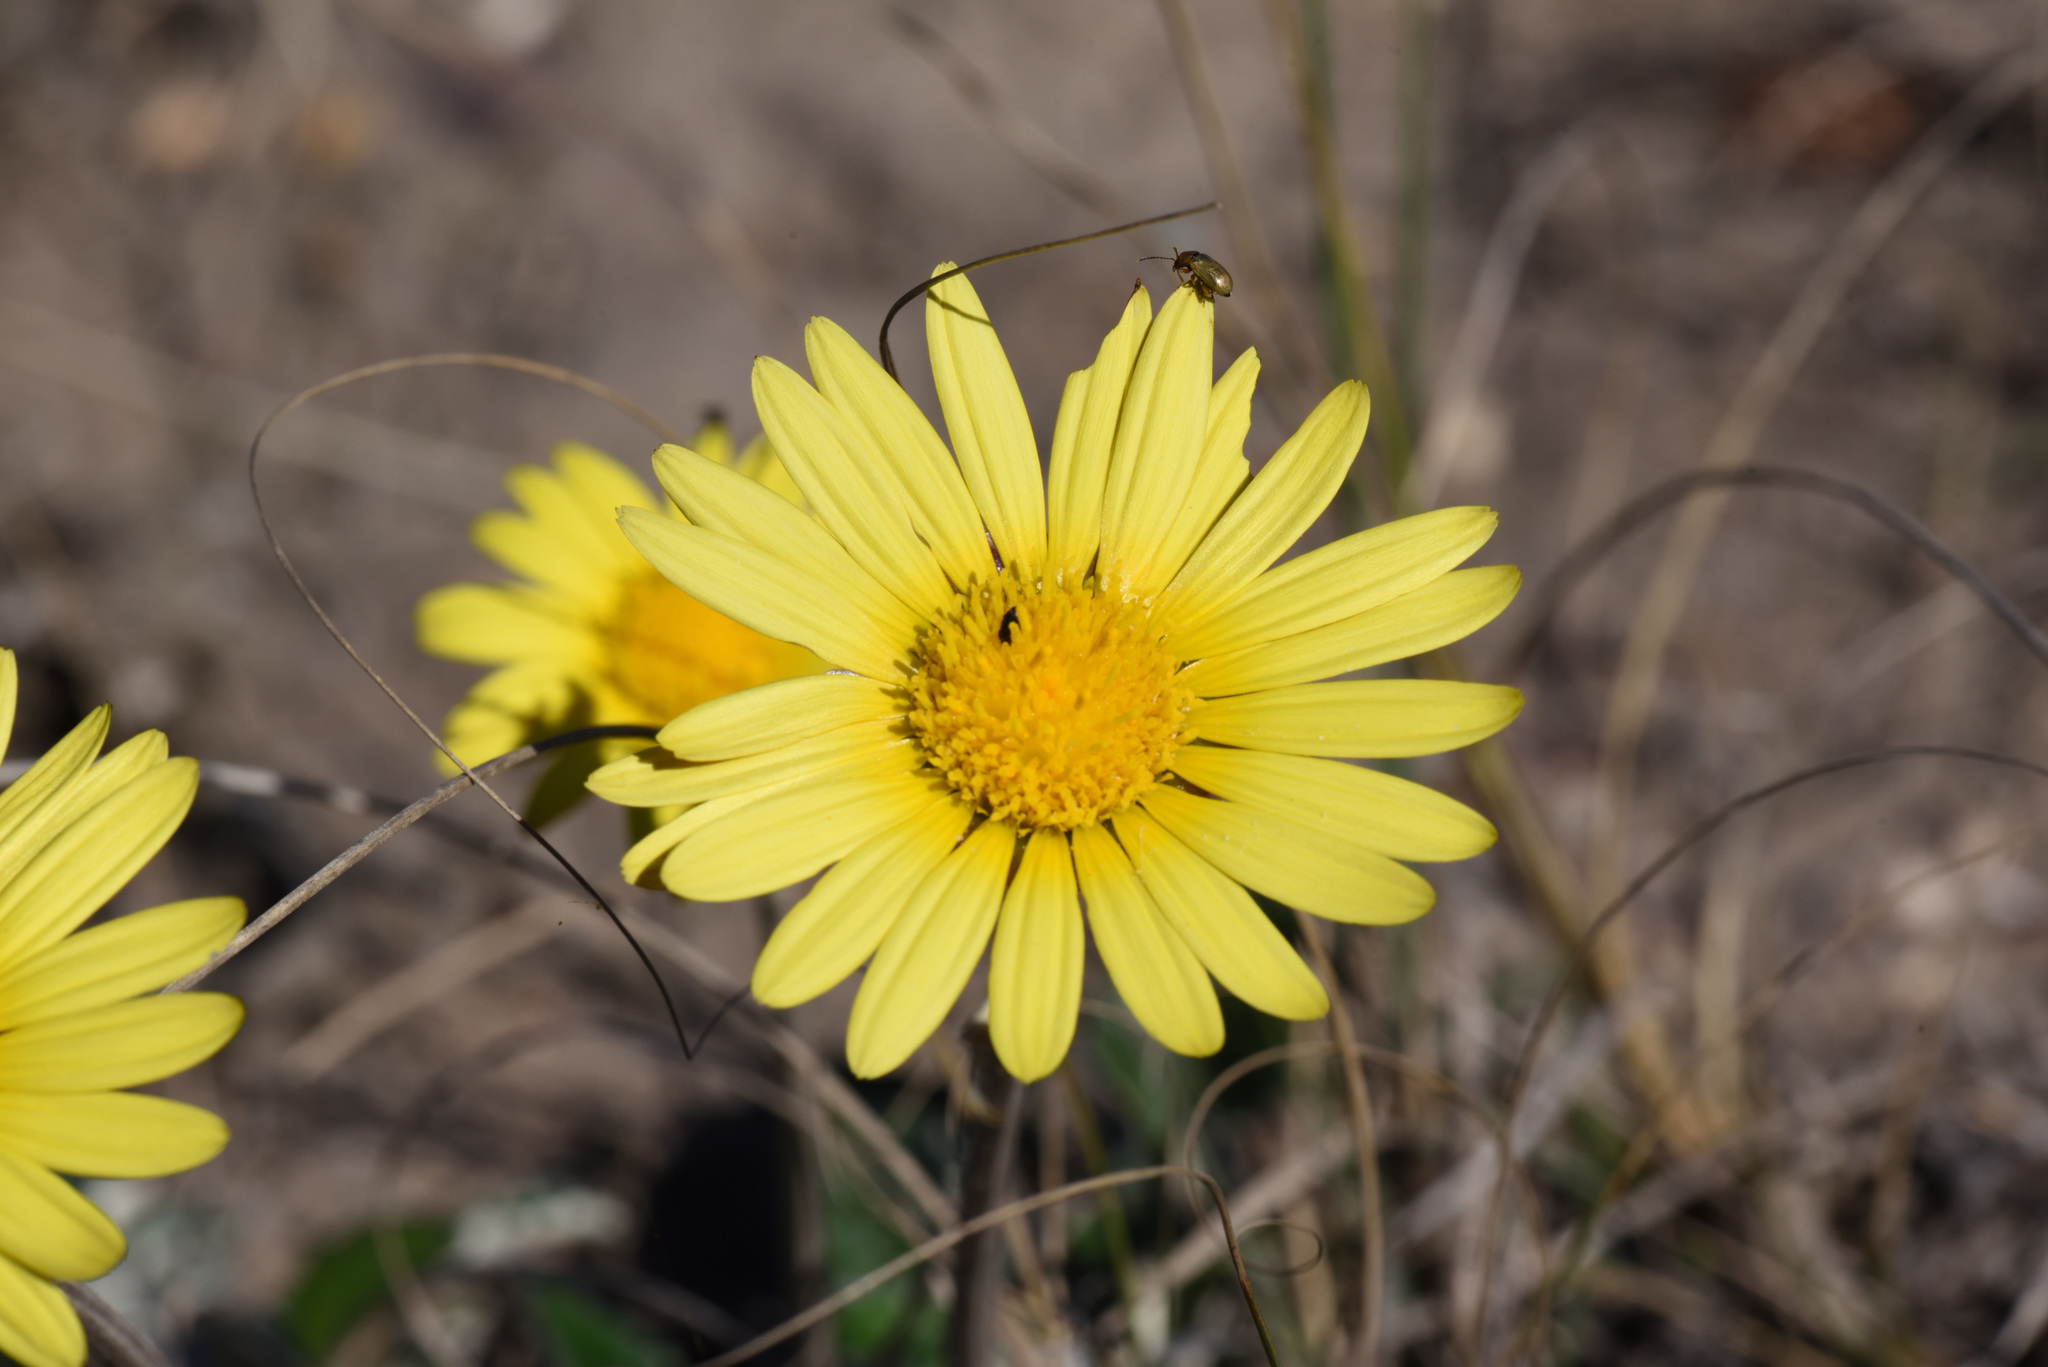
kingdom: Plantae
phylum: Tracheophyta
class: Magnoliopsida
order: Asterales
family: Asteraceae
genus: Haplocarpha
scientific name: Haplocarpha lyrata
